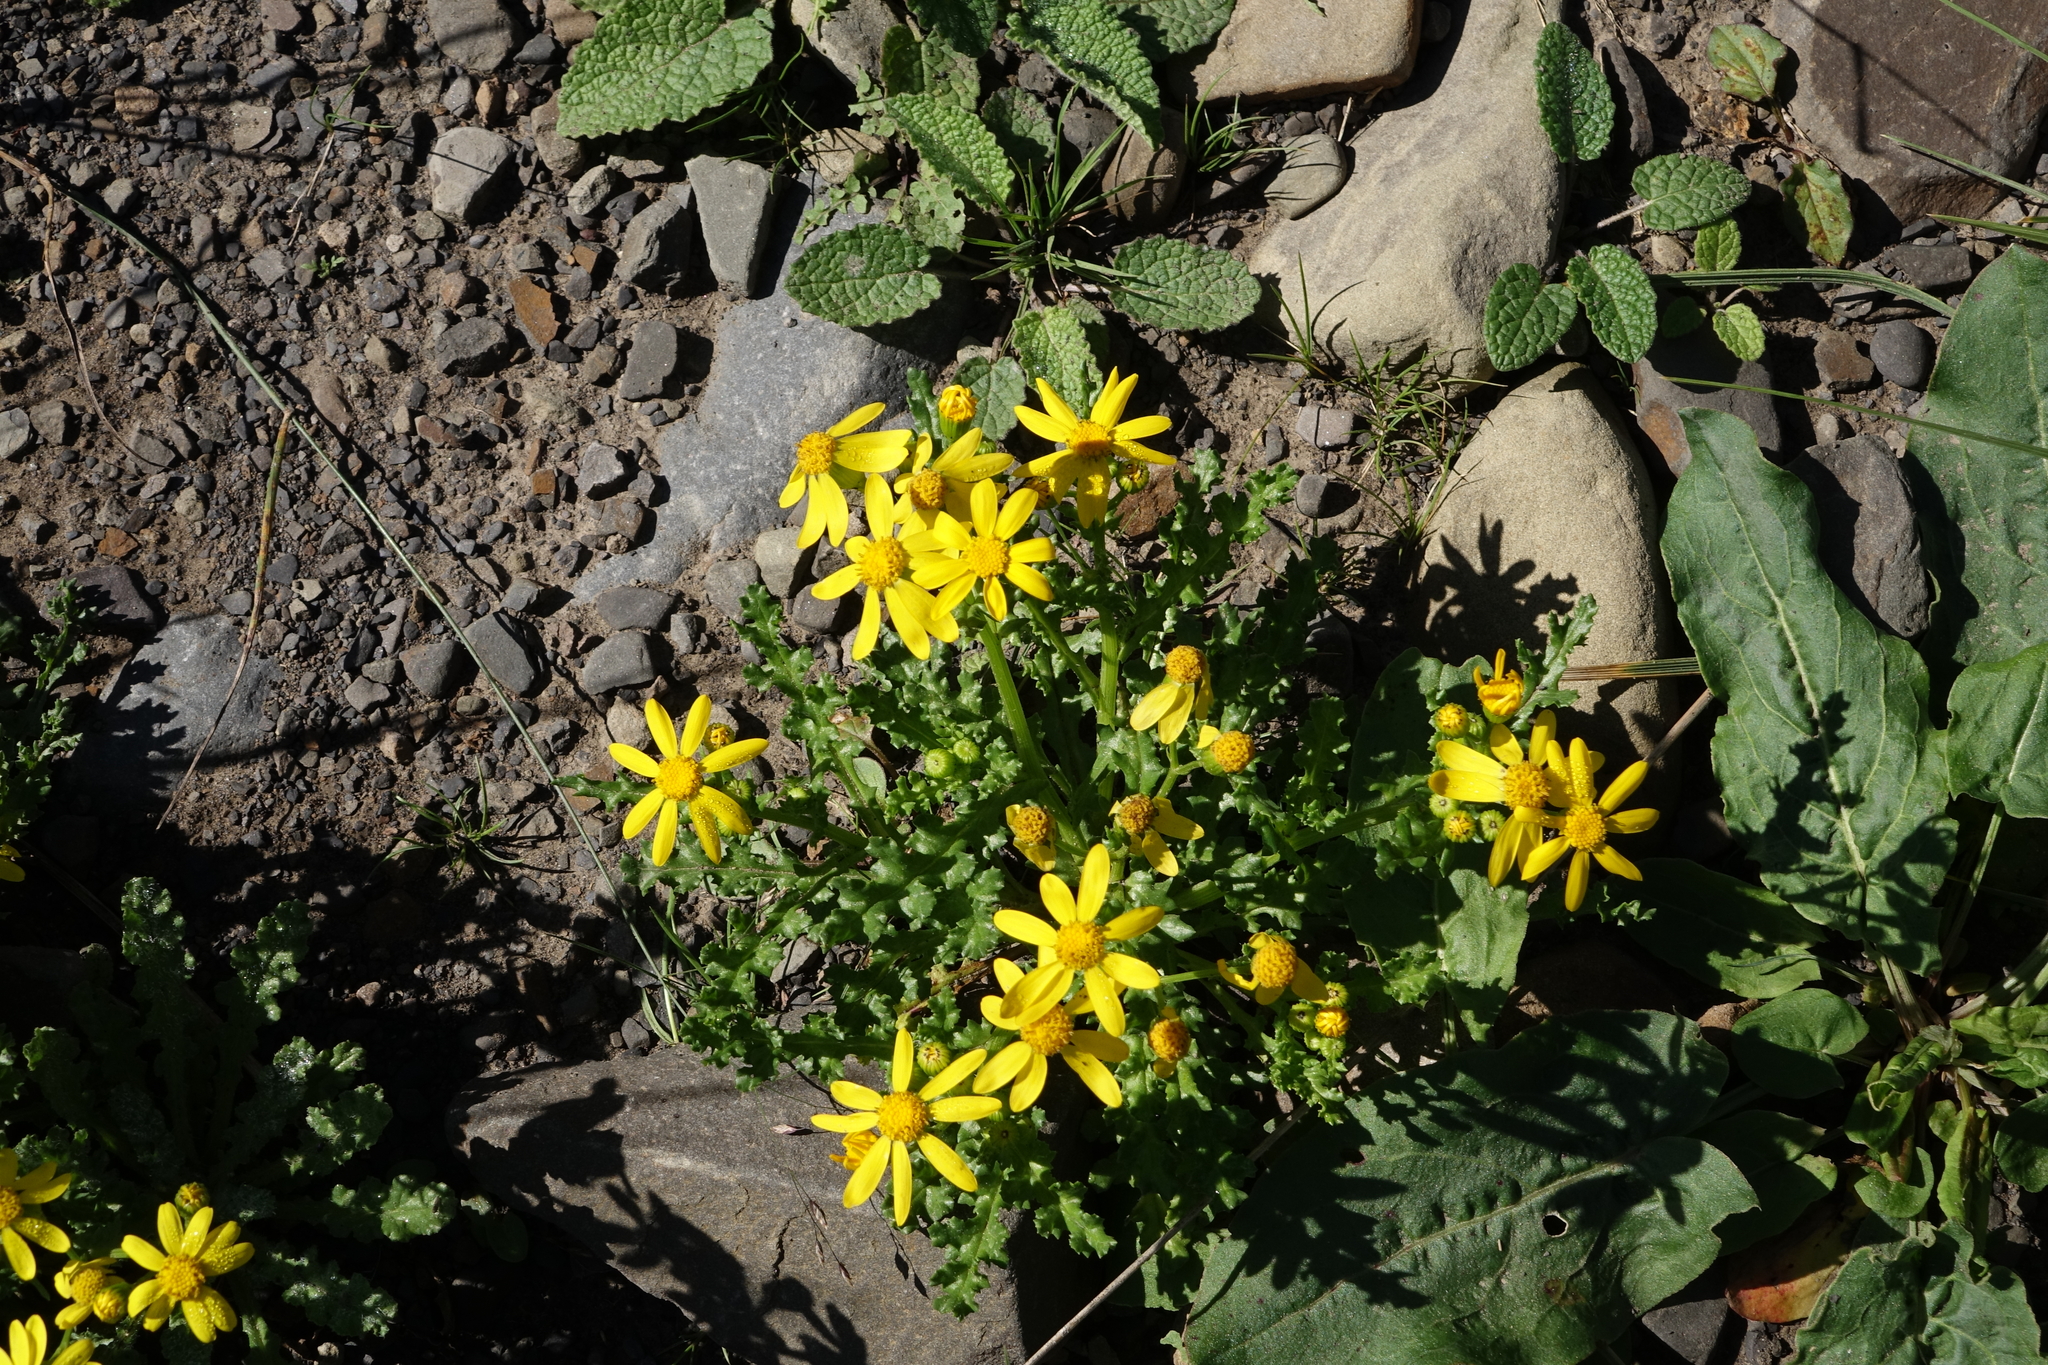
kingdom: Plantae
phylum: Tracheophyta
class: Magnoliopsida
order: Asterales
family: Asteraceae
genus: Senecio
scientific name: Senecio leucanthemifolius
